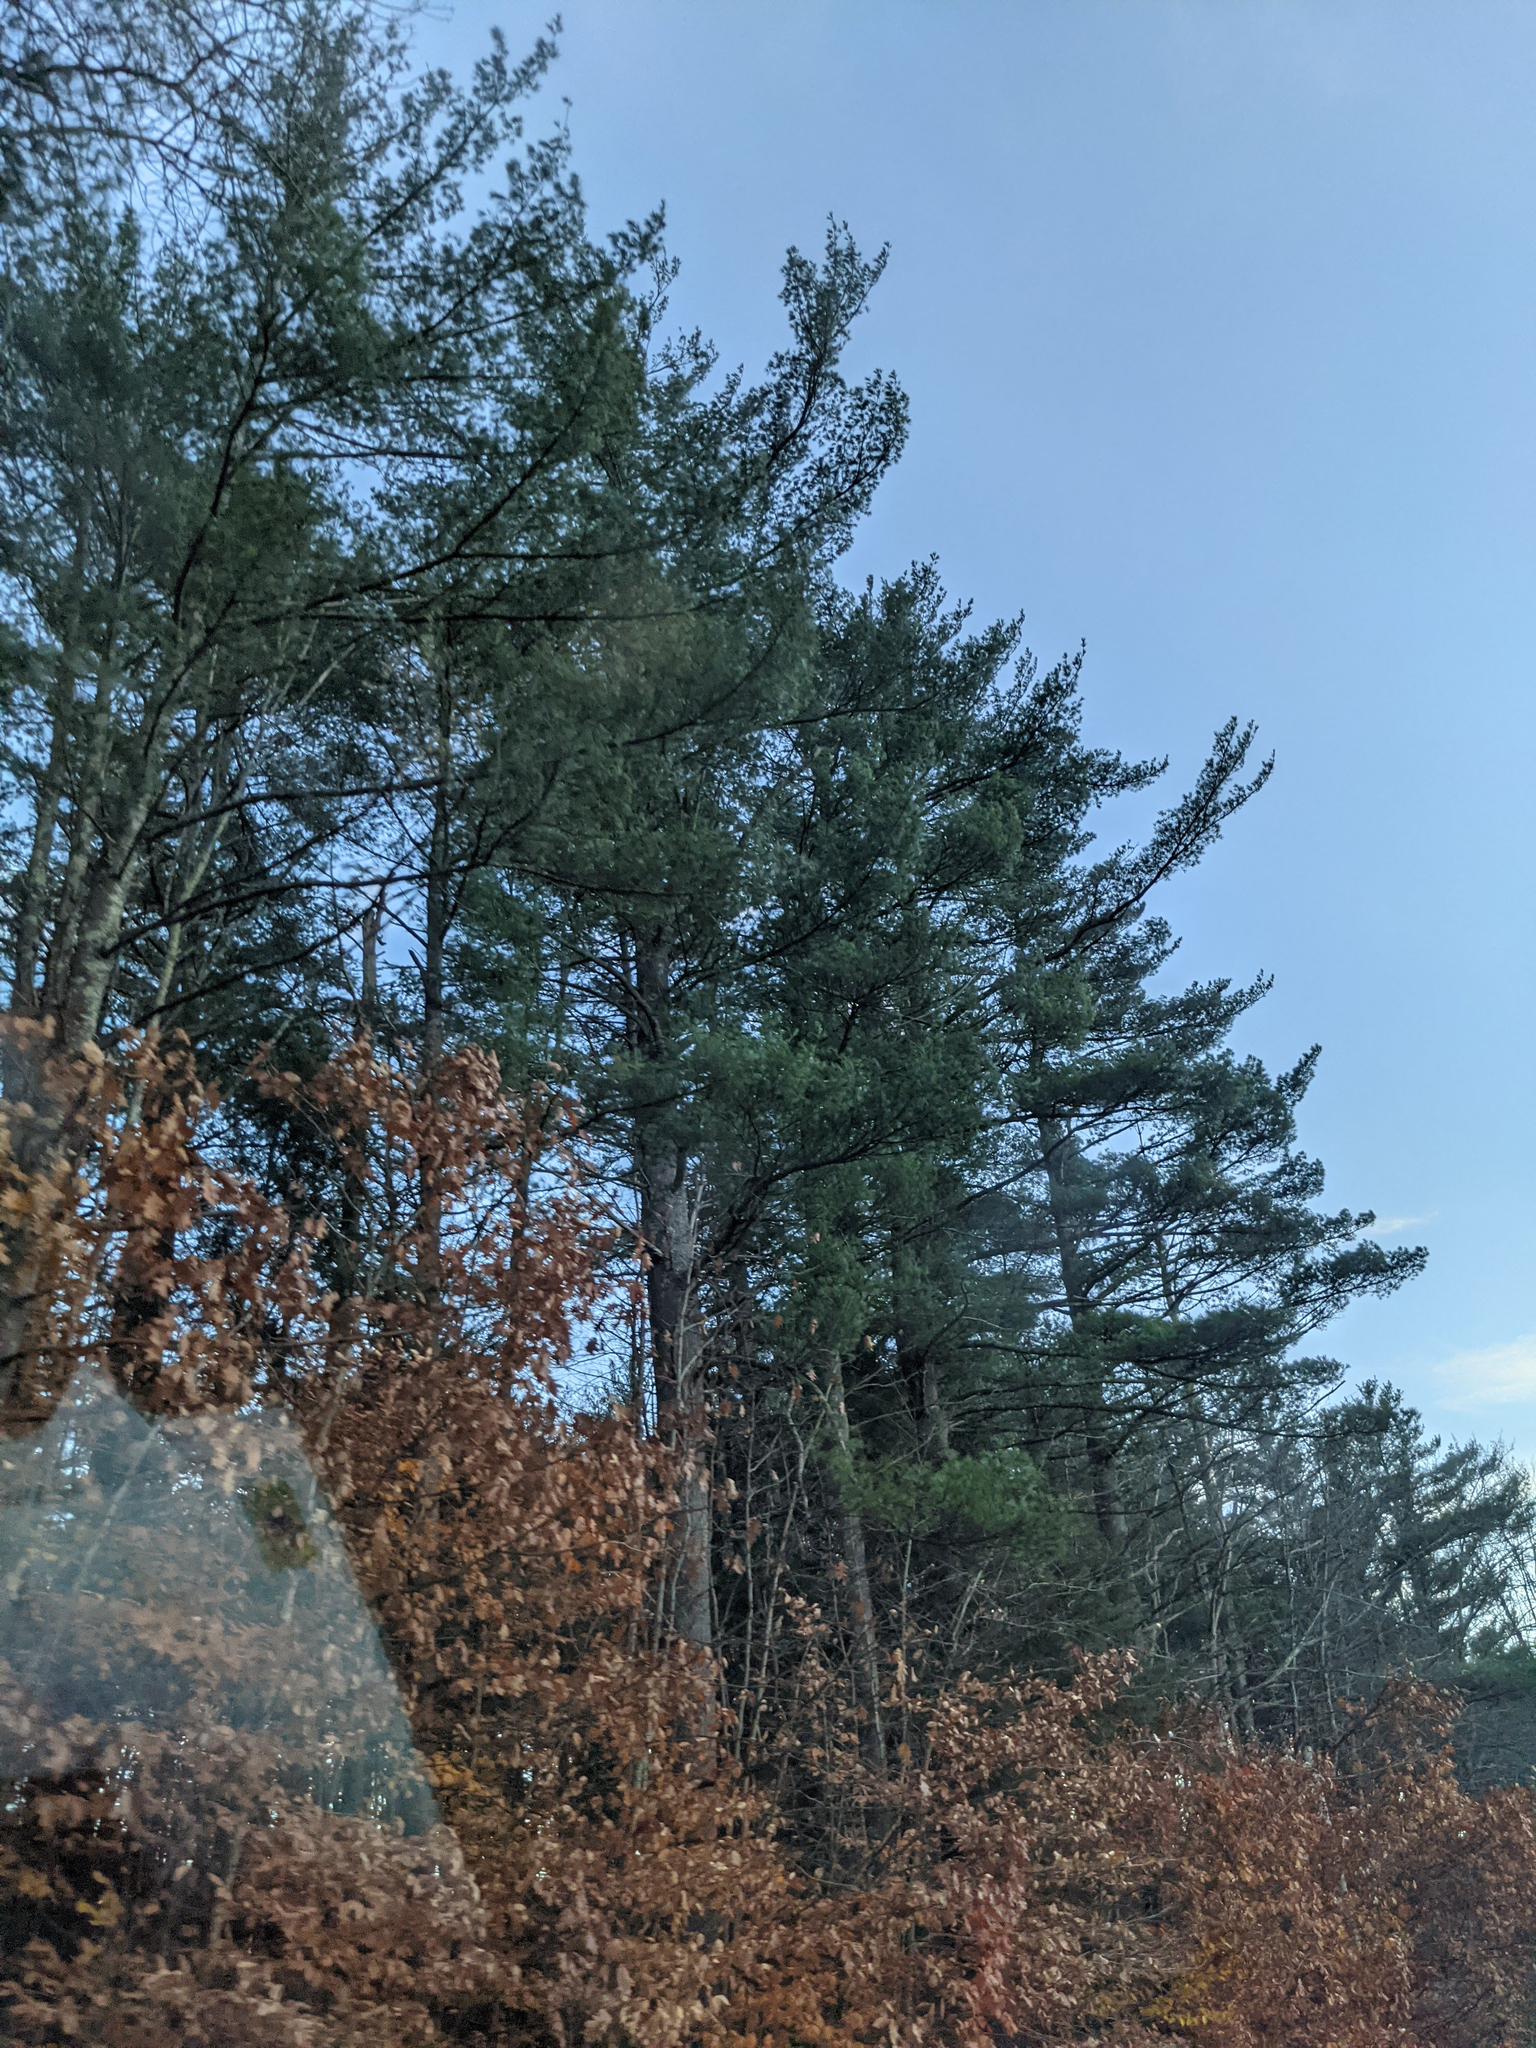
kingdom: Plantae
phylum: Tracheophyta
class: Pinopsida
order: Pinales
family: Pinaceae
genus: Pinus
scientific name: Pinus strobus
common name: Weymouth pine
